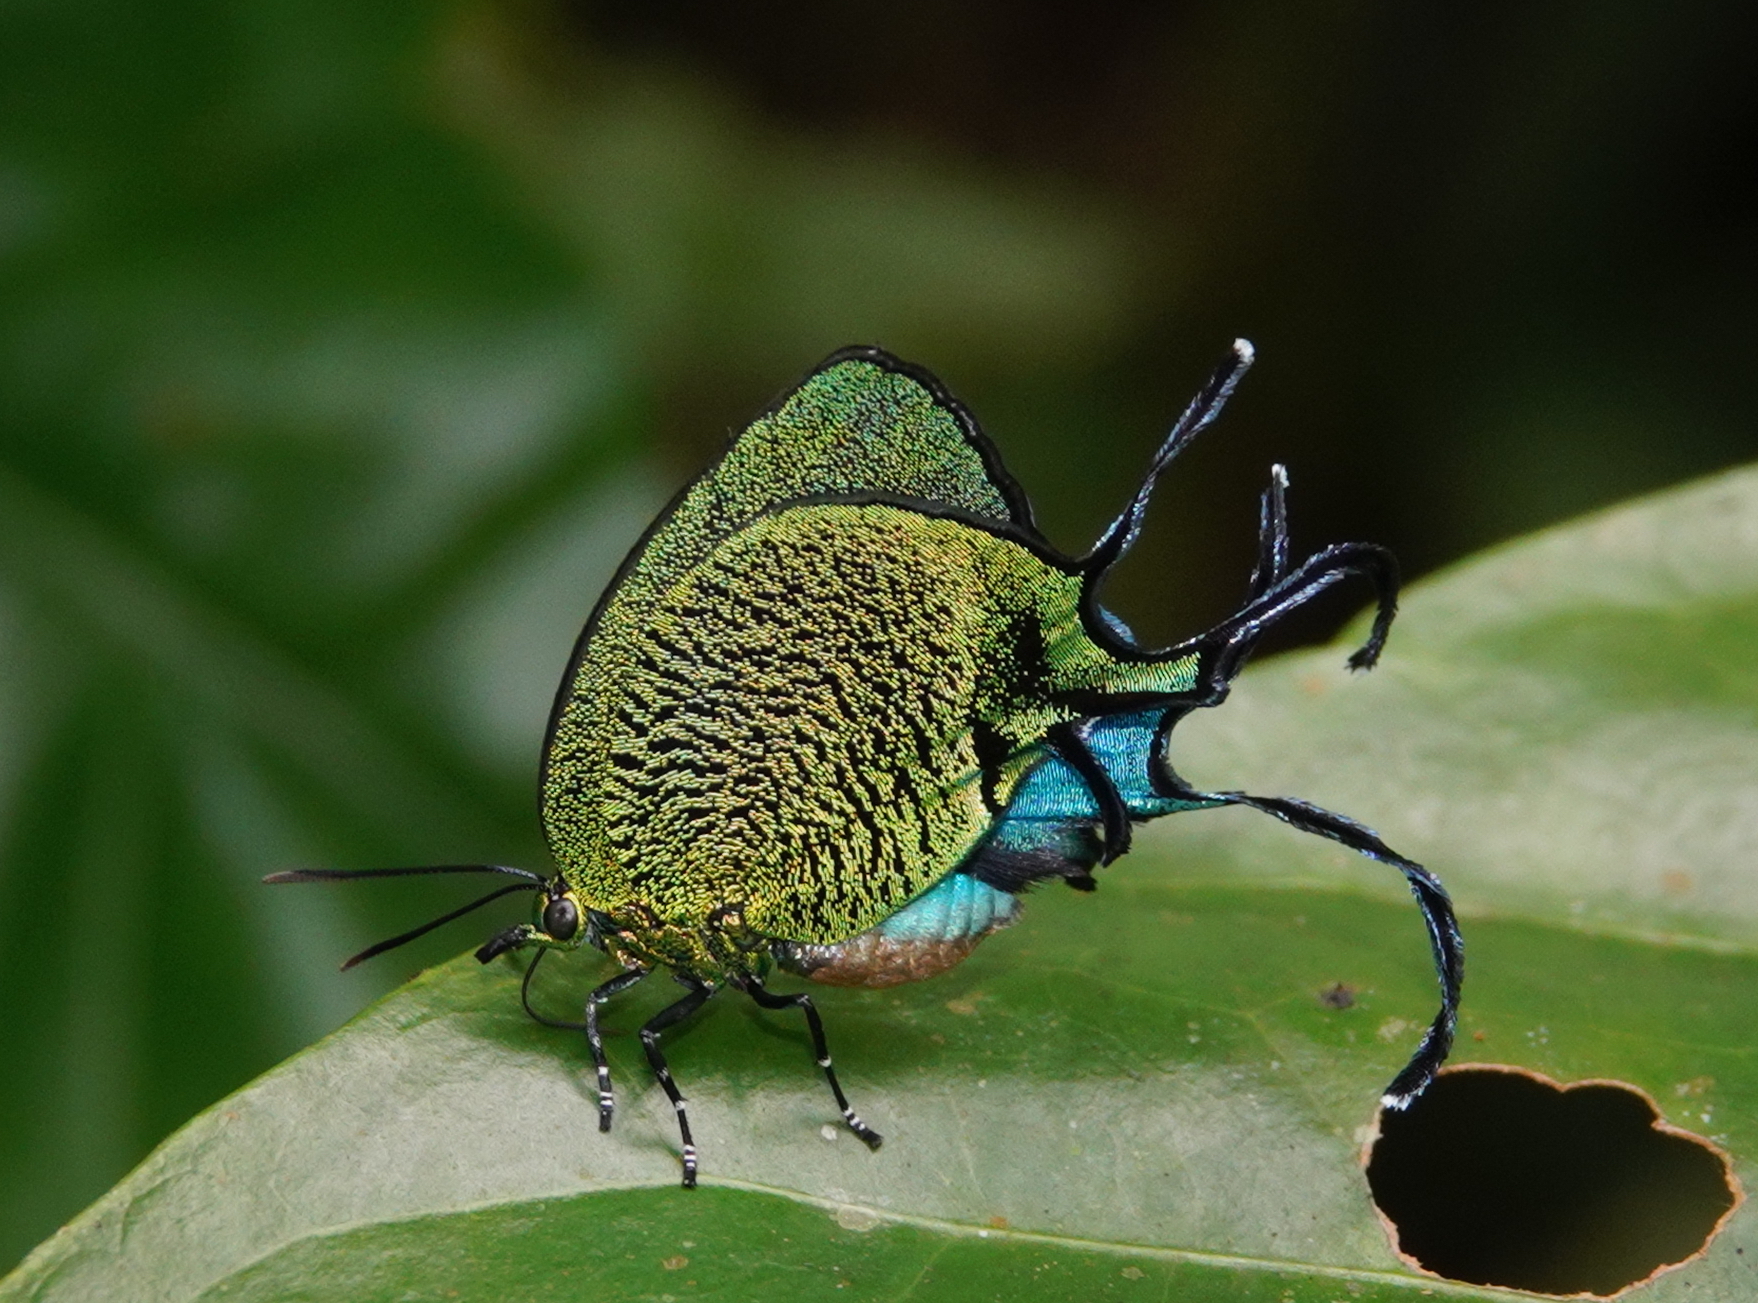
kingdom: Animalia
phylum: Arthropoda
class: Insecta
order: Lepidoptera
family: Lycaenidae
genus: Arcas
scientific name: Arcas imperialis
